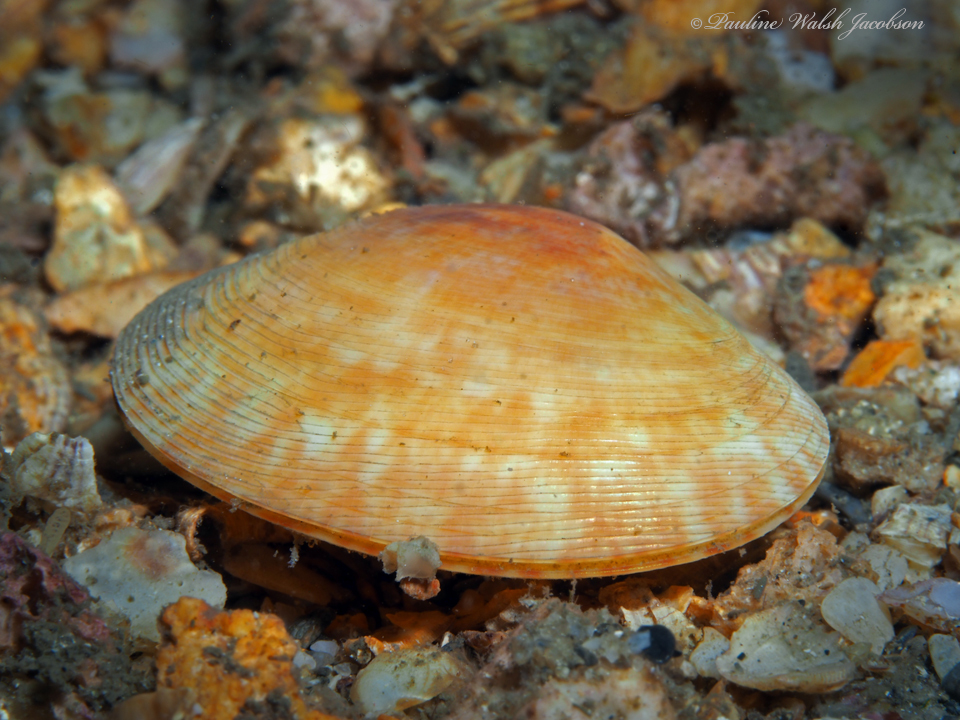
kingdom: Animalia
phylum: Mollusca
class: Bivalvia
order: Cardiida
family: Semelidae
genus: Semele
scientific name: Semele purpurascens
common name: Purplish semele
